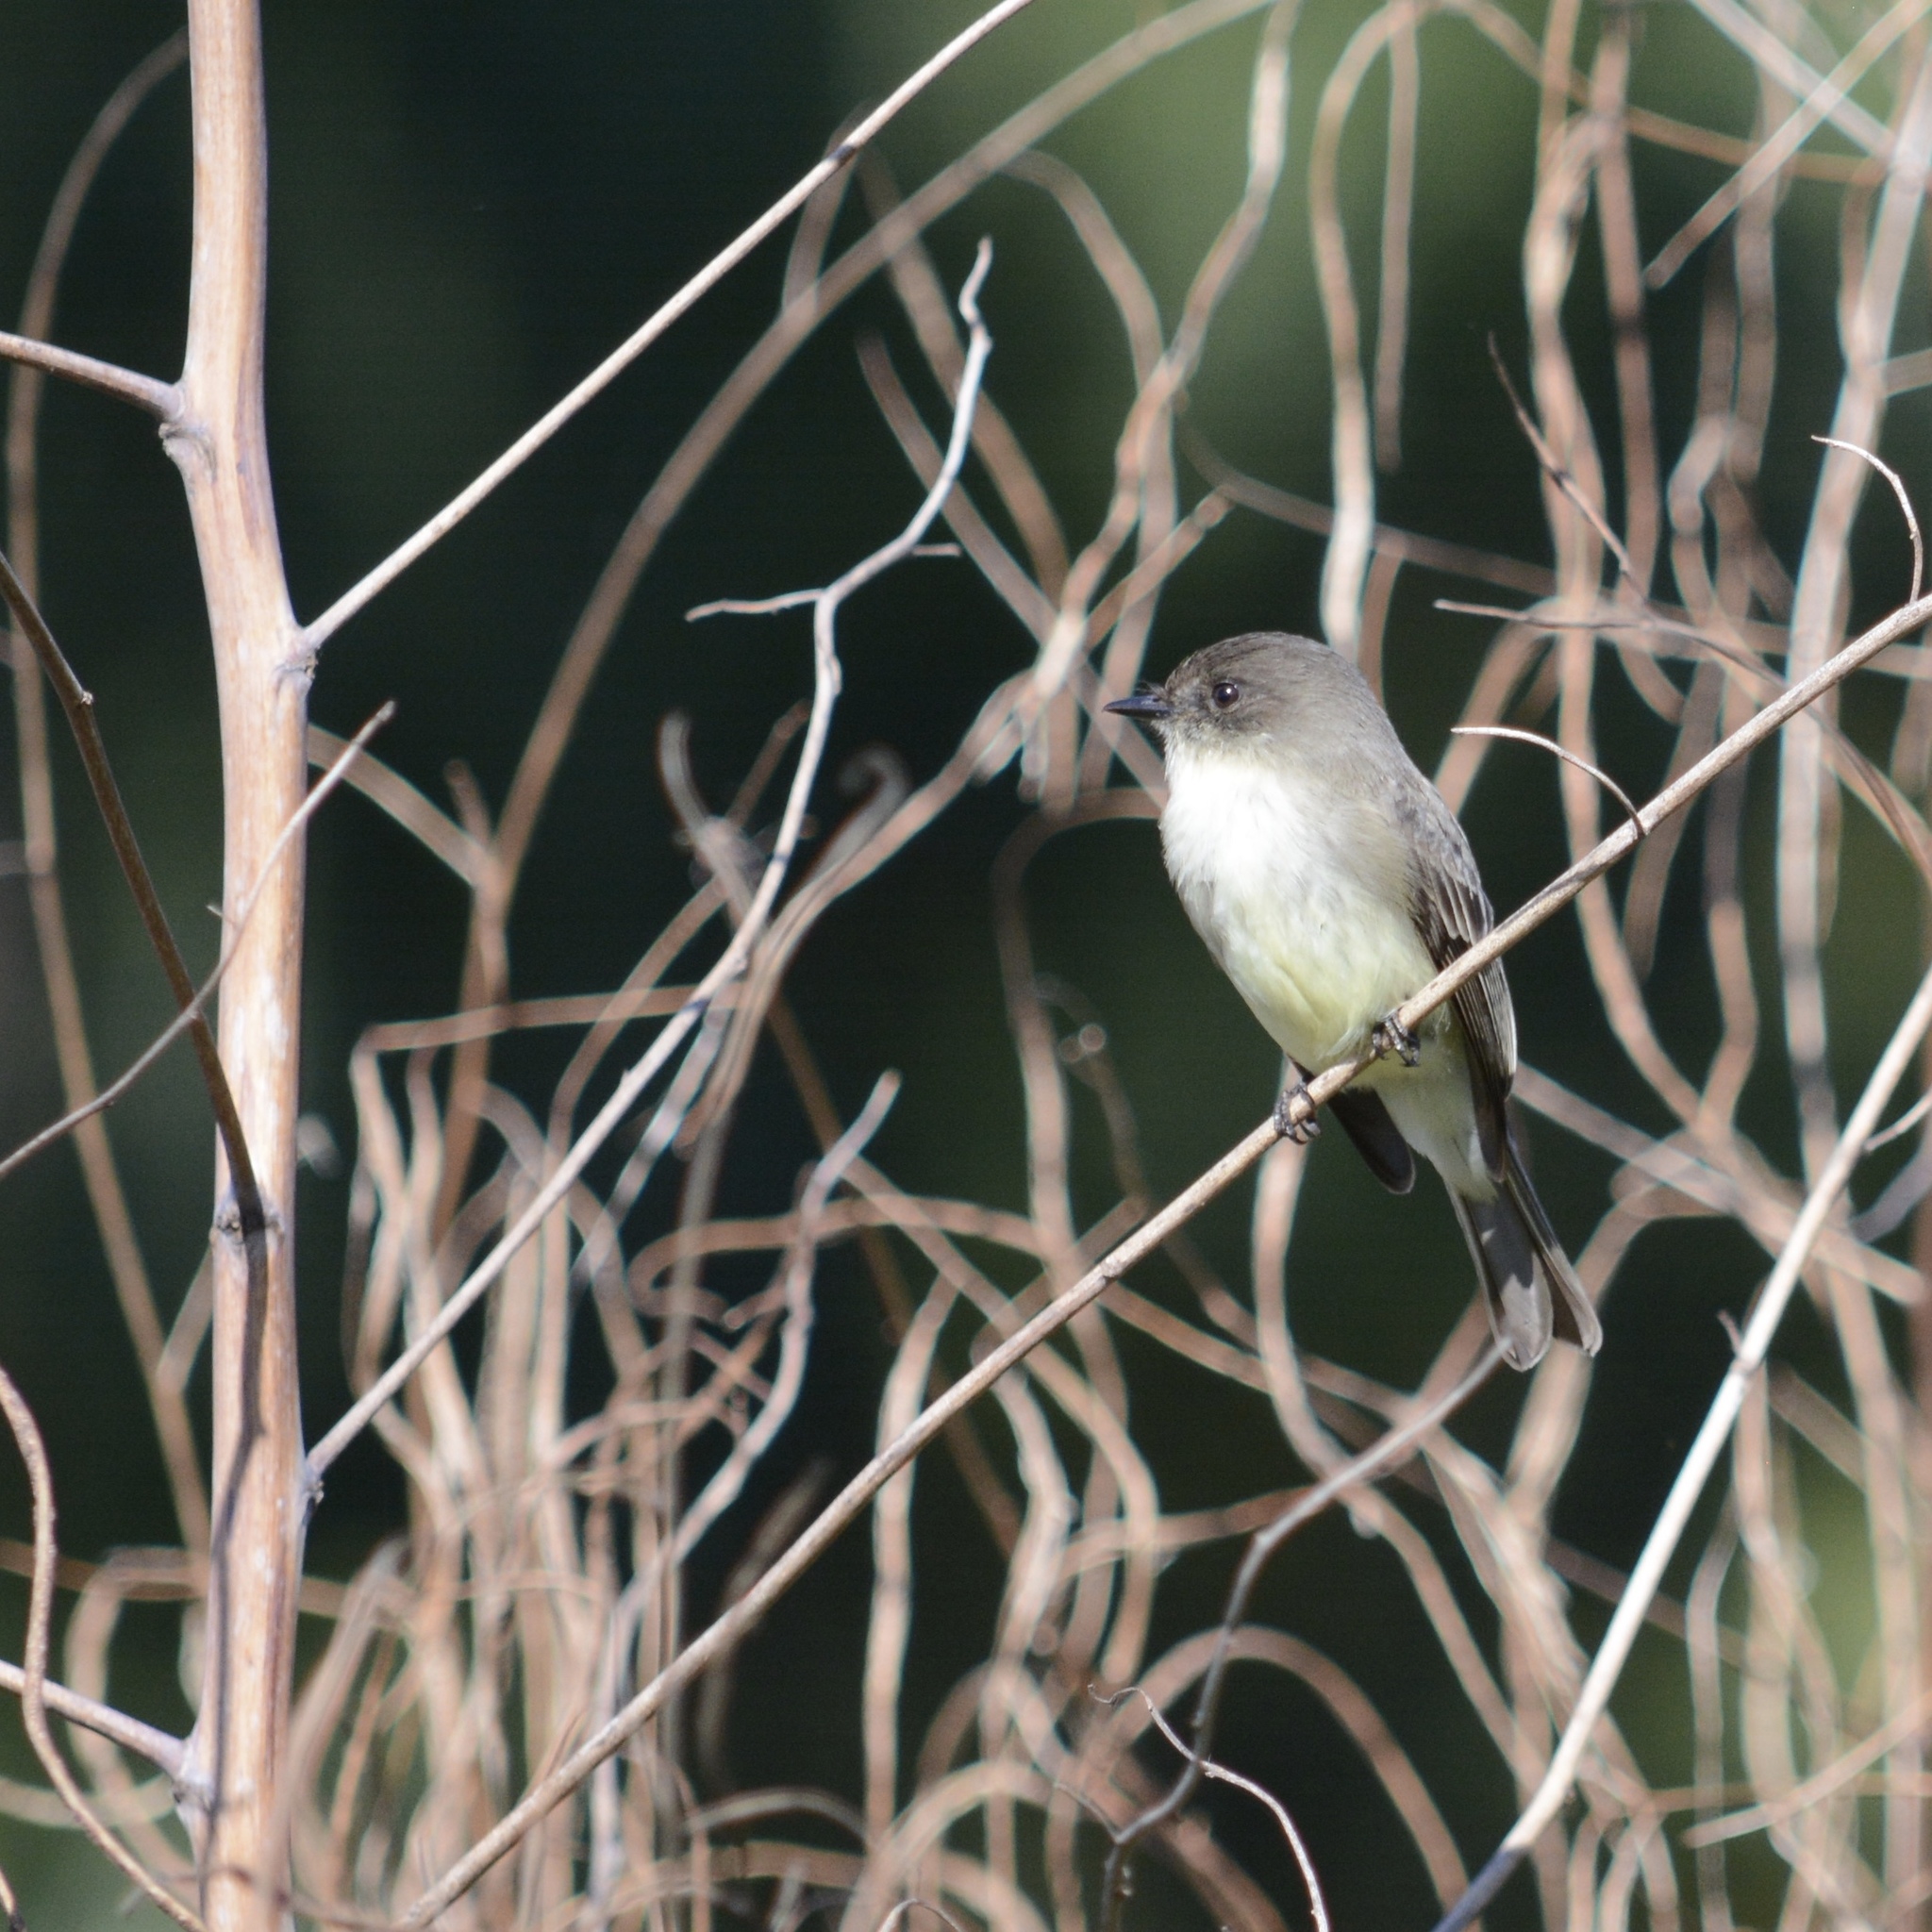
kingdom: Animalia
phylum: Chordata
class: Aves
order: Passeriformes
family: Tyrannidae
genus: Sayornis
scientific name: Sayornis phoebe
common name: Eastern phoebe
